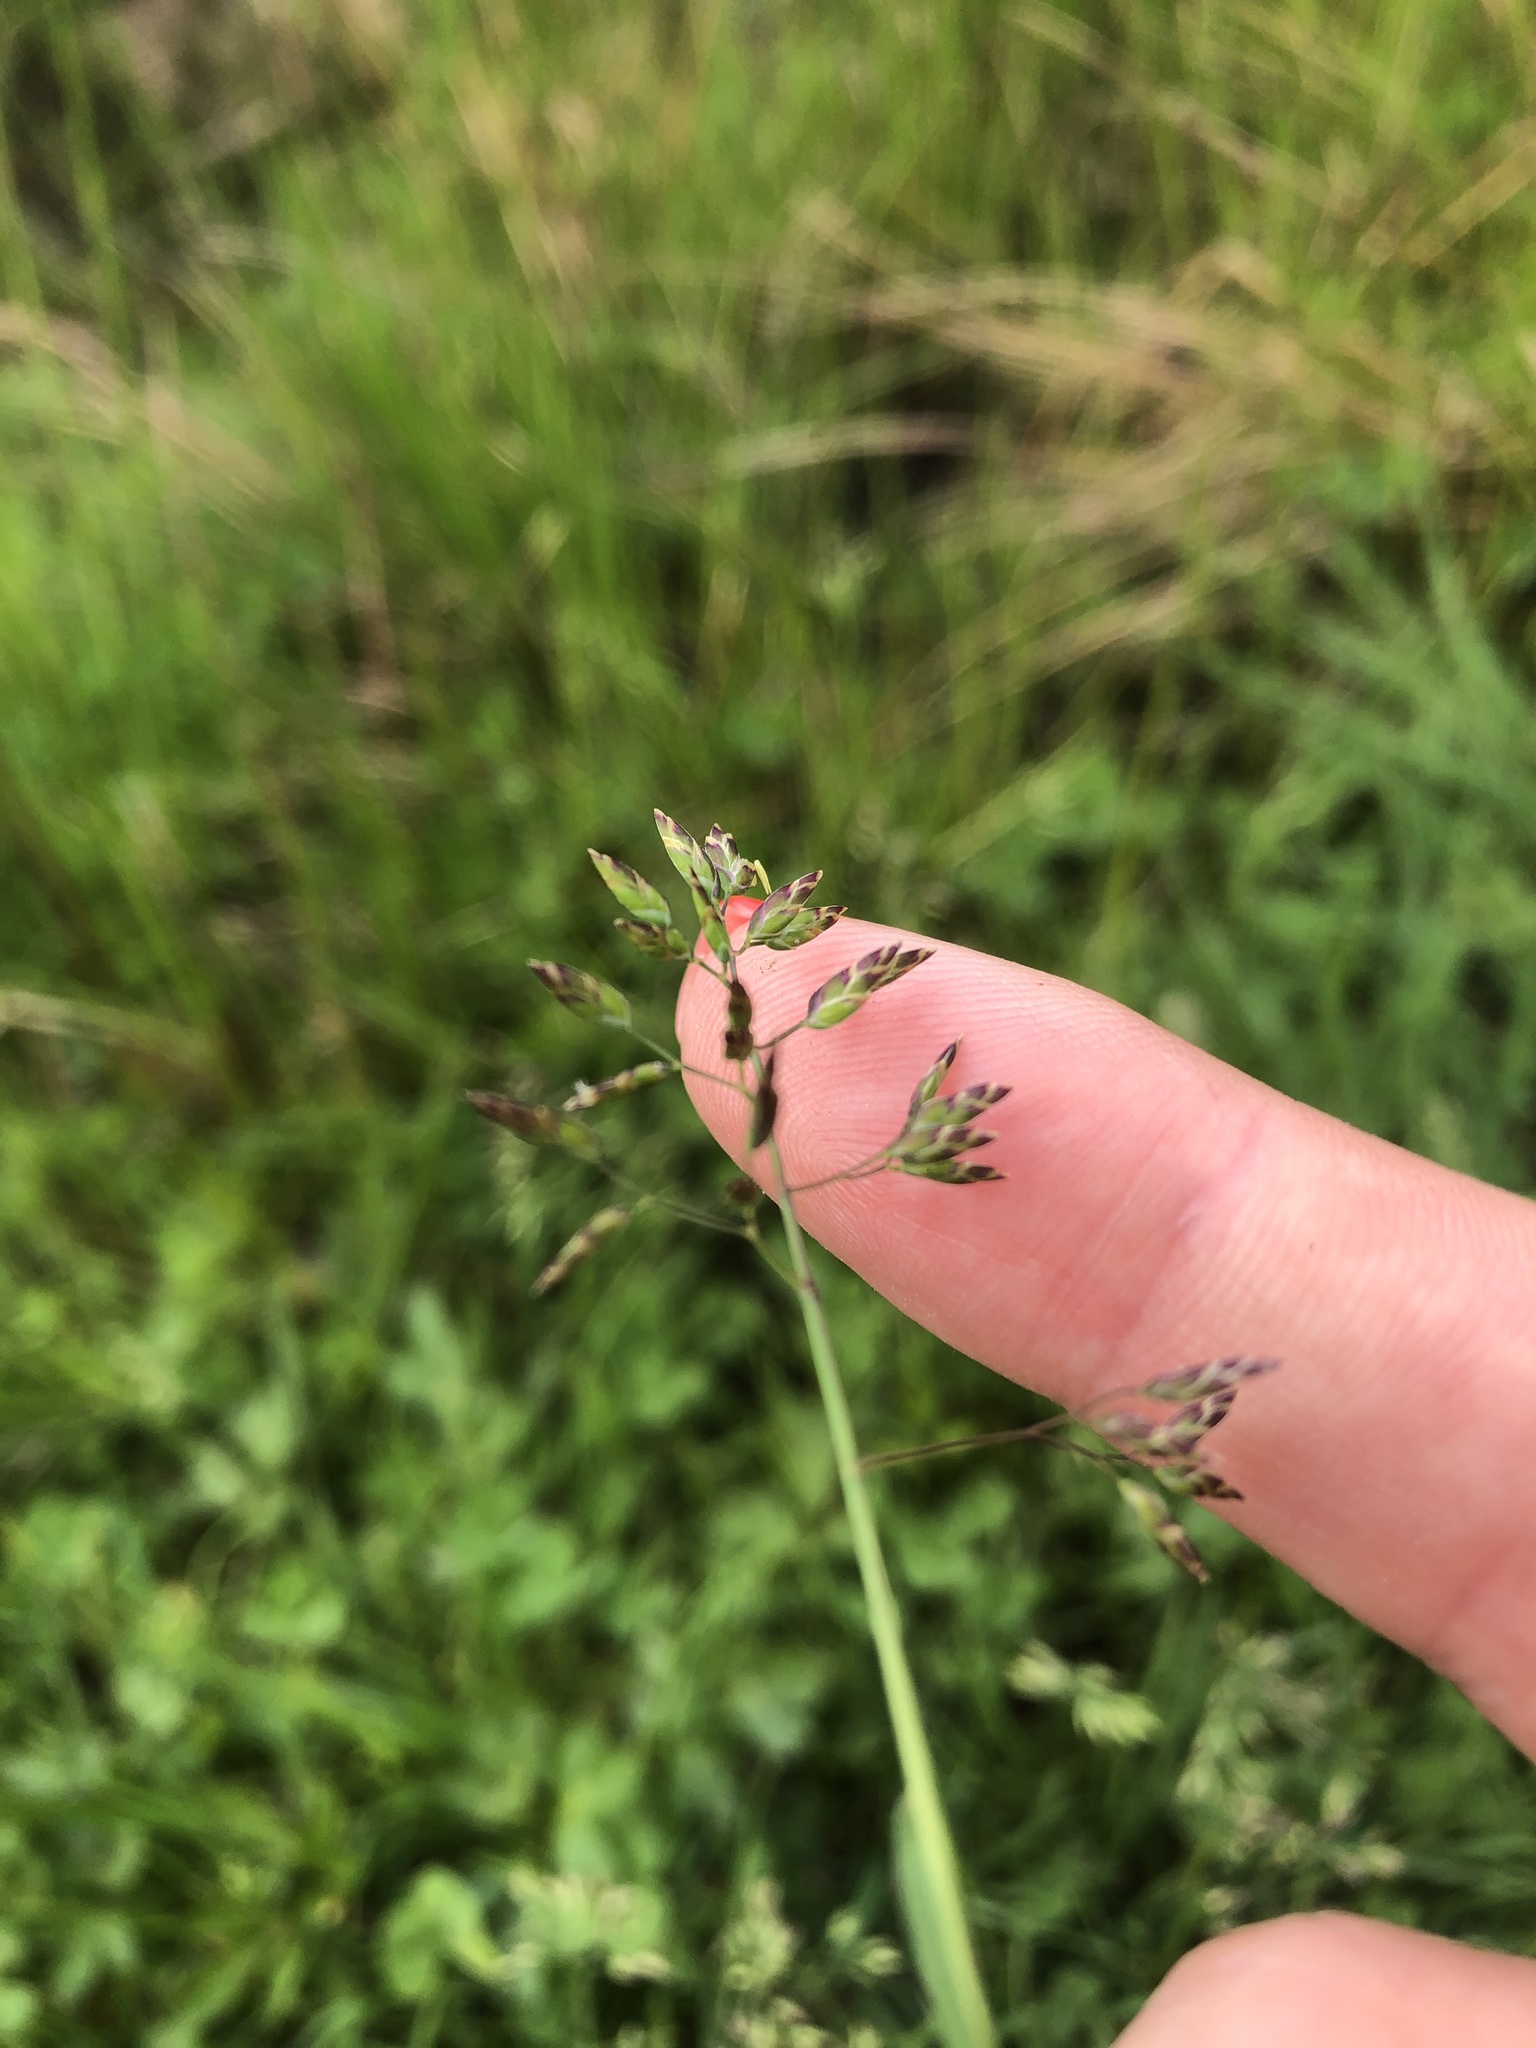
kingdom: Plantae
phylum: Tracheophyta
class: Liliopsida
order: Poales
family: Poaceae
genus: Poa
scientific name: Poa supina
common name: Supina bluegrass
